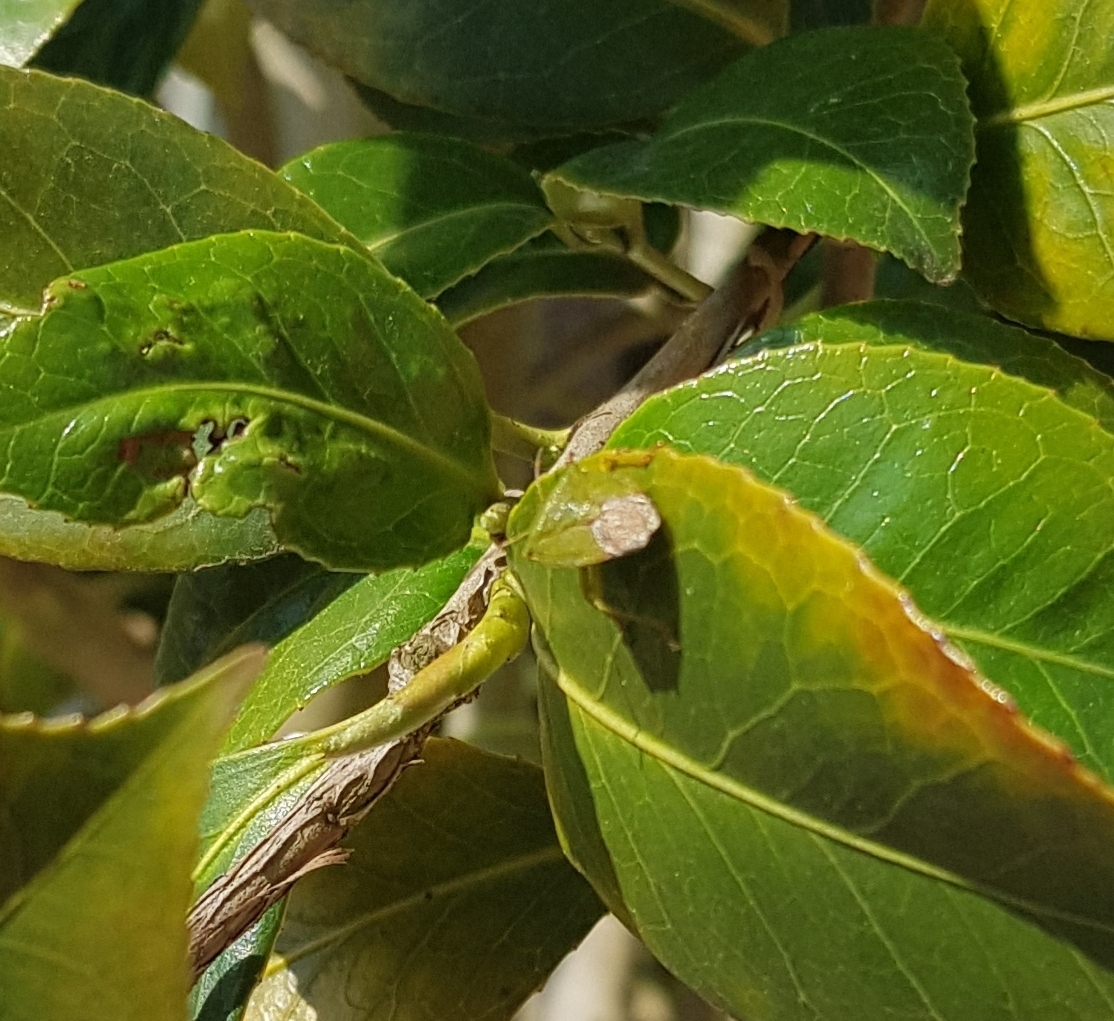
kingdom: Animalia
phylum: Arthropoda
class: Insecta
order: Hemiptera
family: Pentatomidae
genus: Palomena
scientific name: Palomena prasina
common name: Green shieldbug
